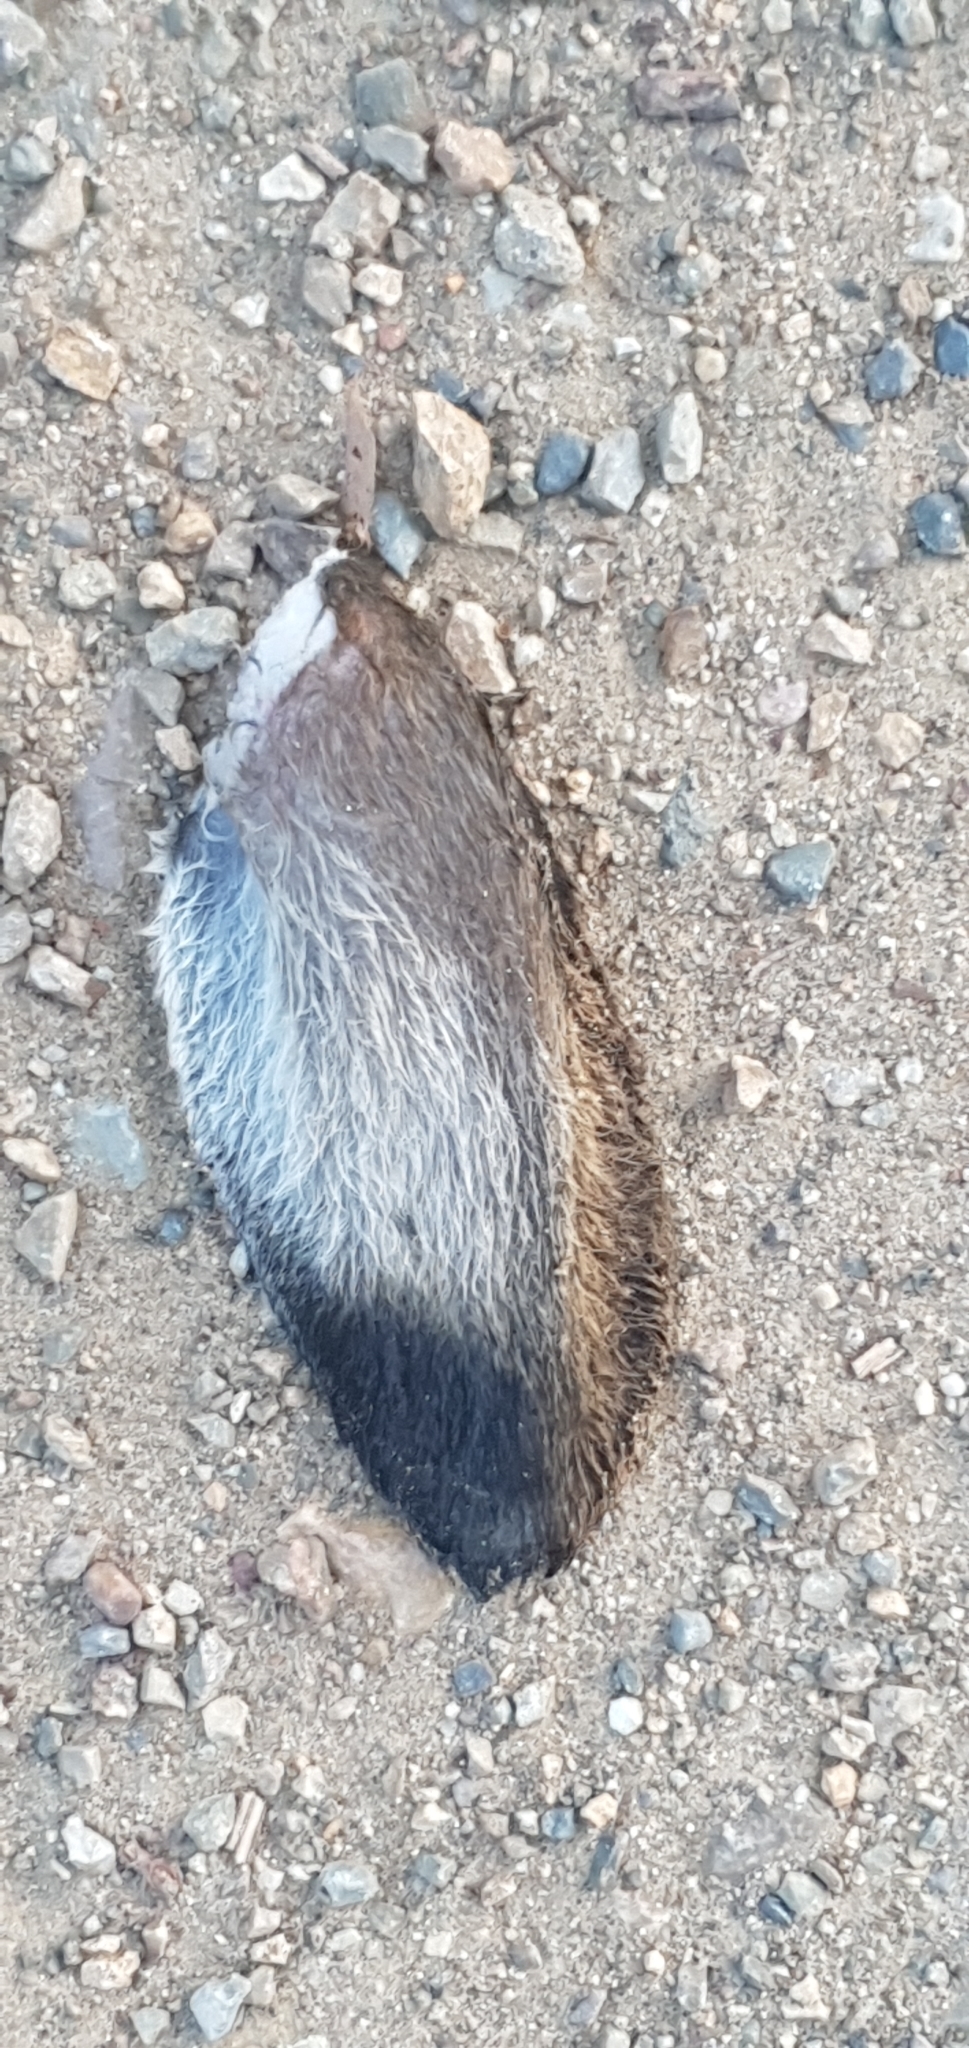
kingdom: Animalia
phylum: Chordata
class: Mammalia
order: Lagomorpha
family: Leporidae
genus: Lepus
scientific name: Lepus europaeus
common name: European hare
